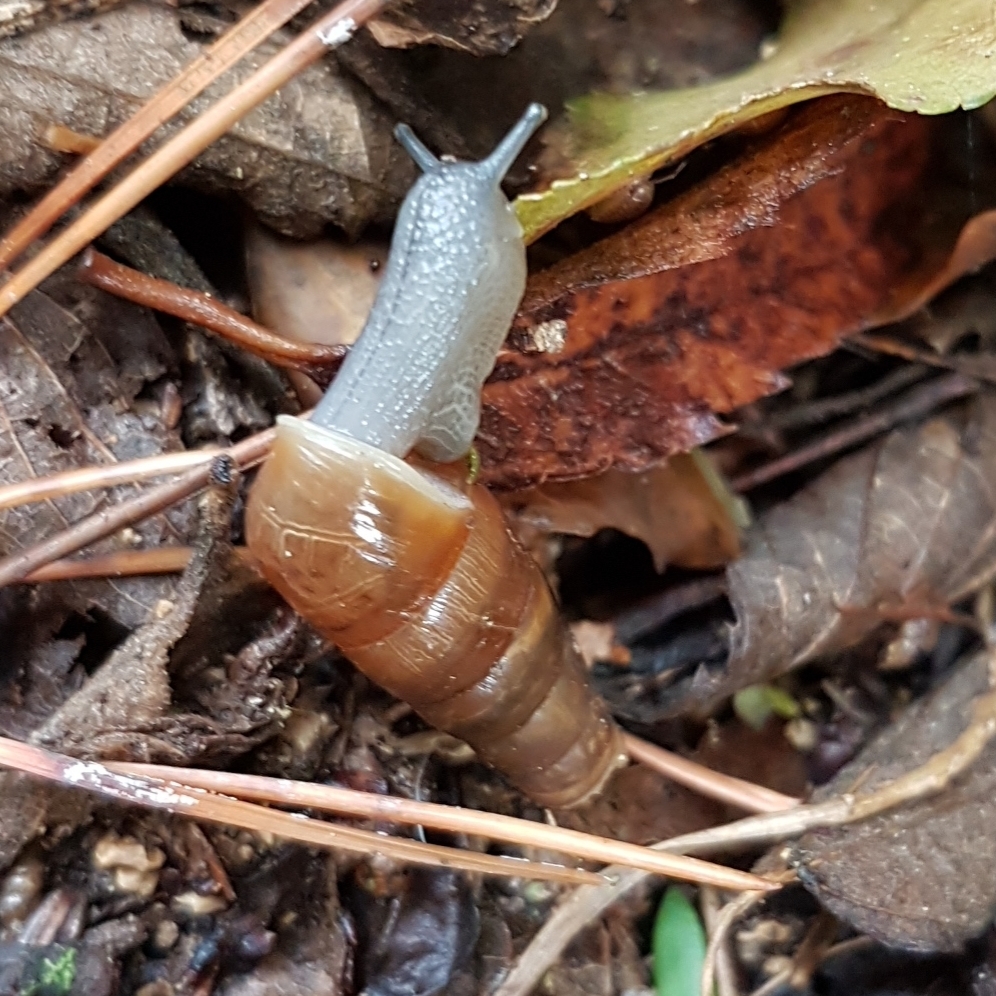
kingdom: Animalia
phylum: Mollusca
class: Gastropoda
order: Stylommatophora
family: Achatinidae
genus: Rumina
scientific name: Rumina decollata
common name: Decollate snail
